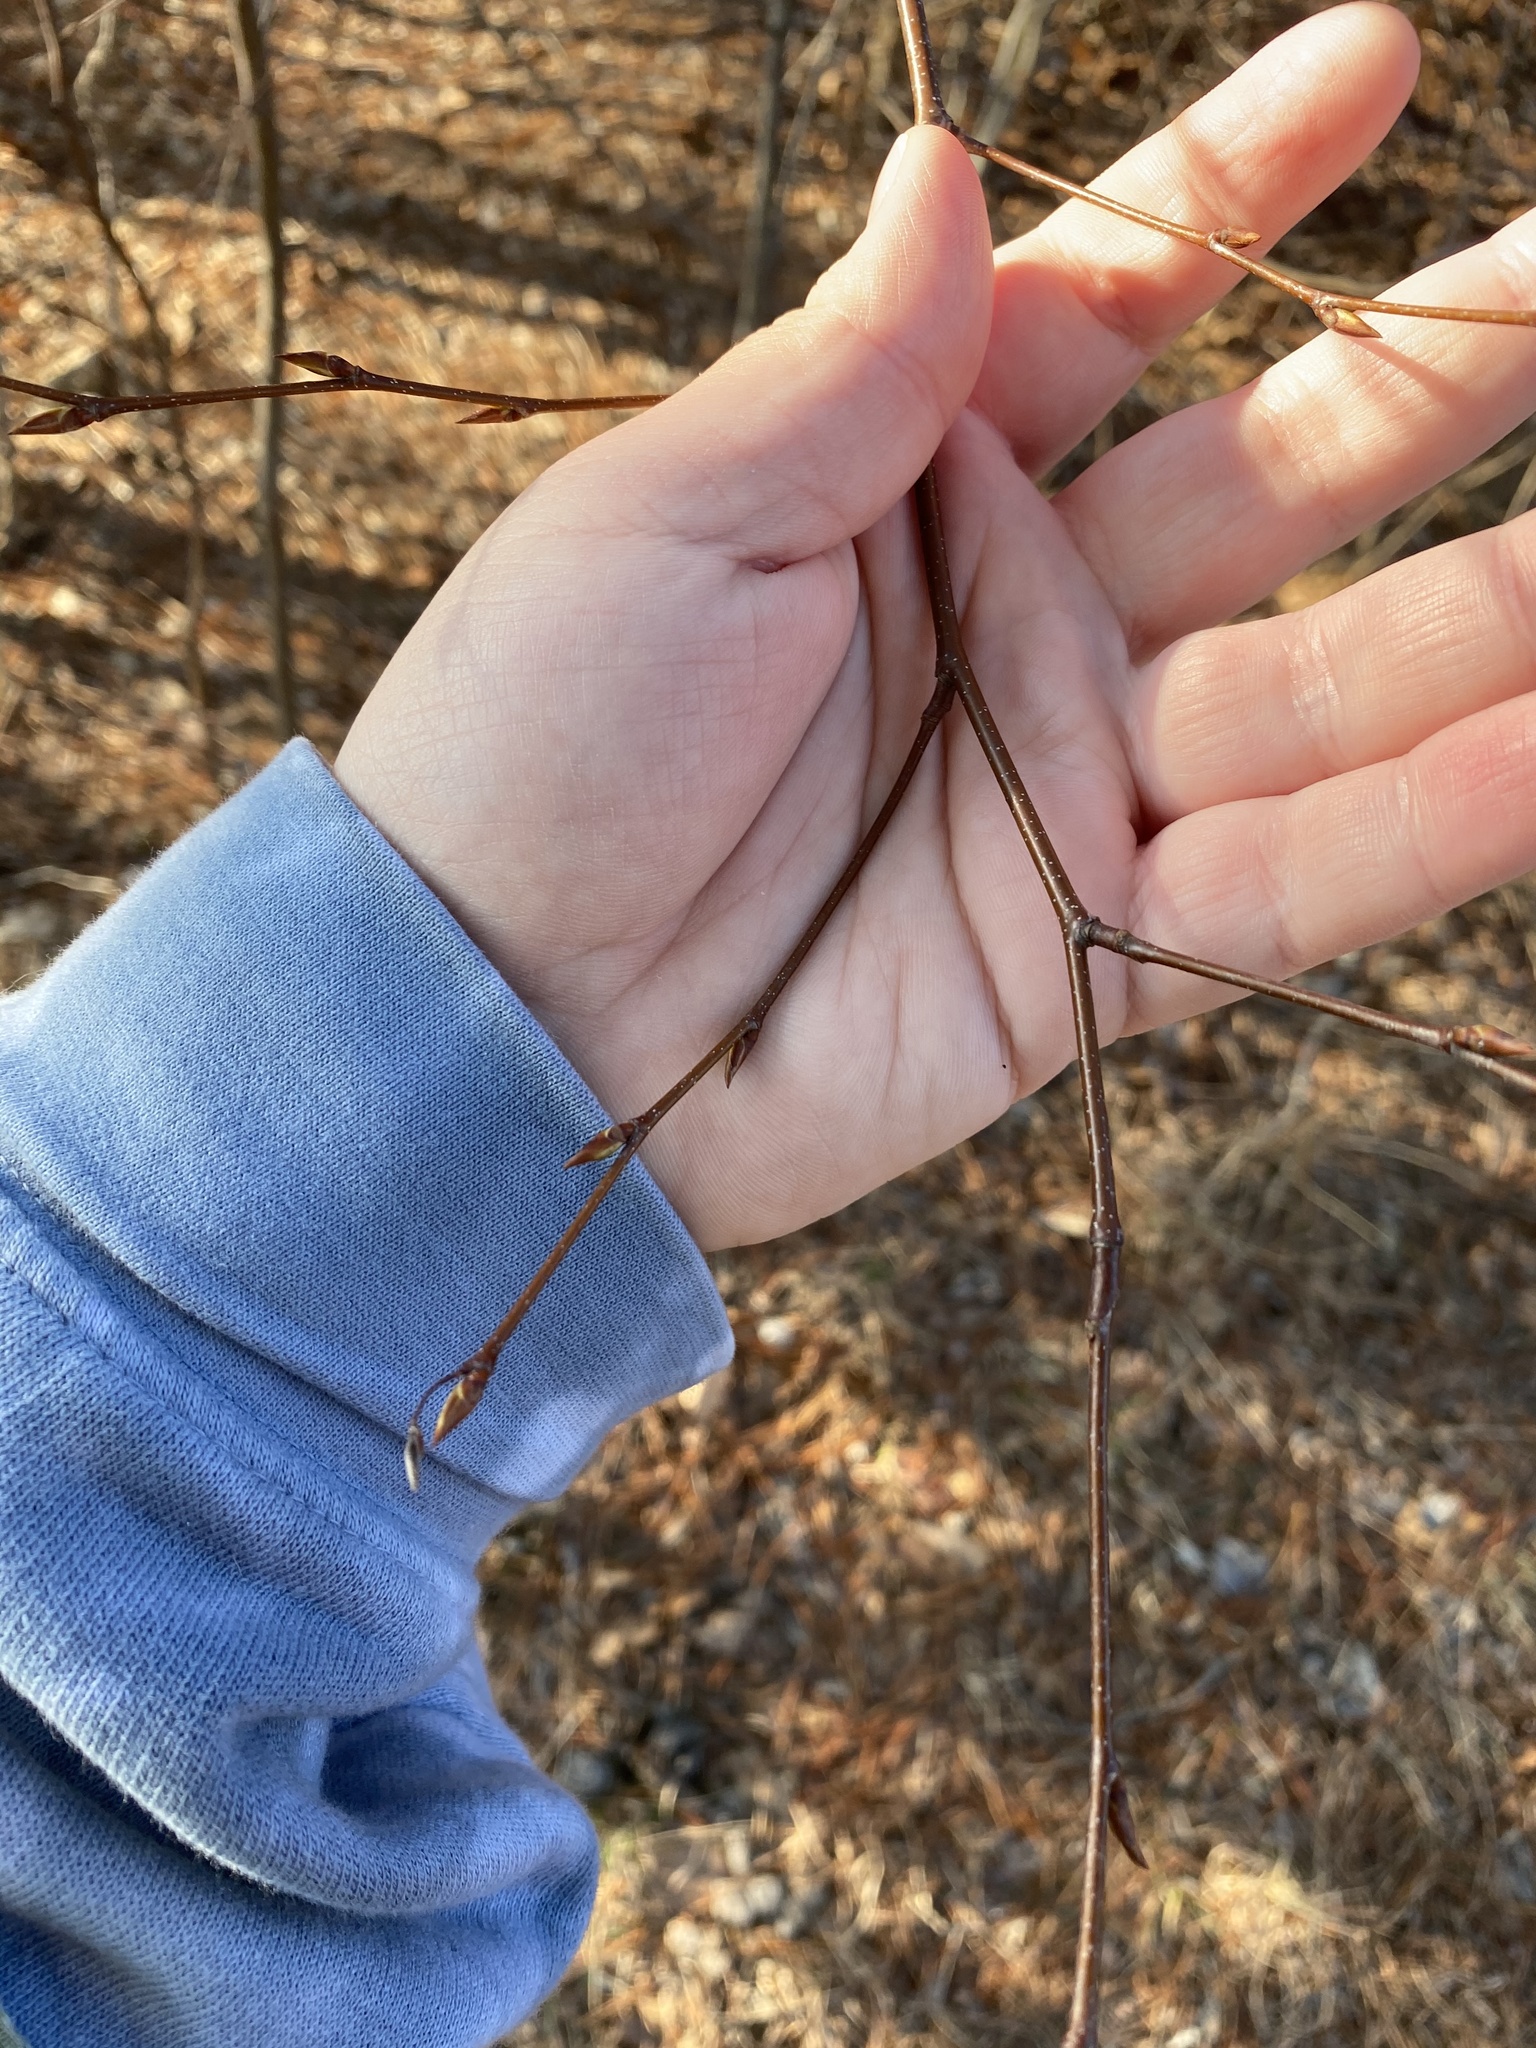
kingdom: Plantae
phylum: Tracheophyta
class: Magnoliopsida
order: Fagales
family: Betulaceae
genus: Betula
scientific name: Betula lenta
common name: Black birch
